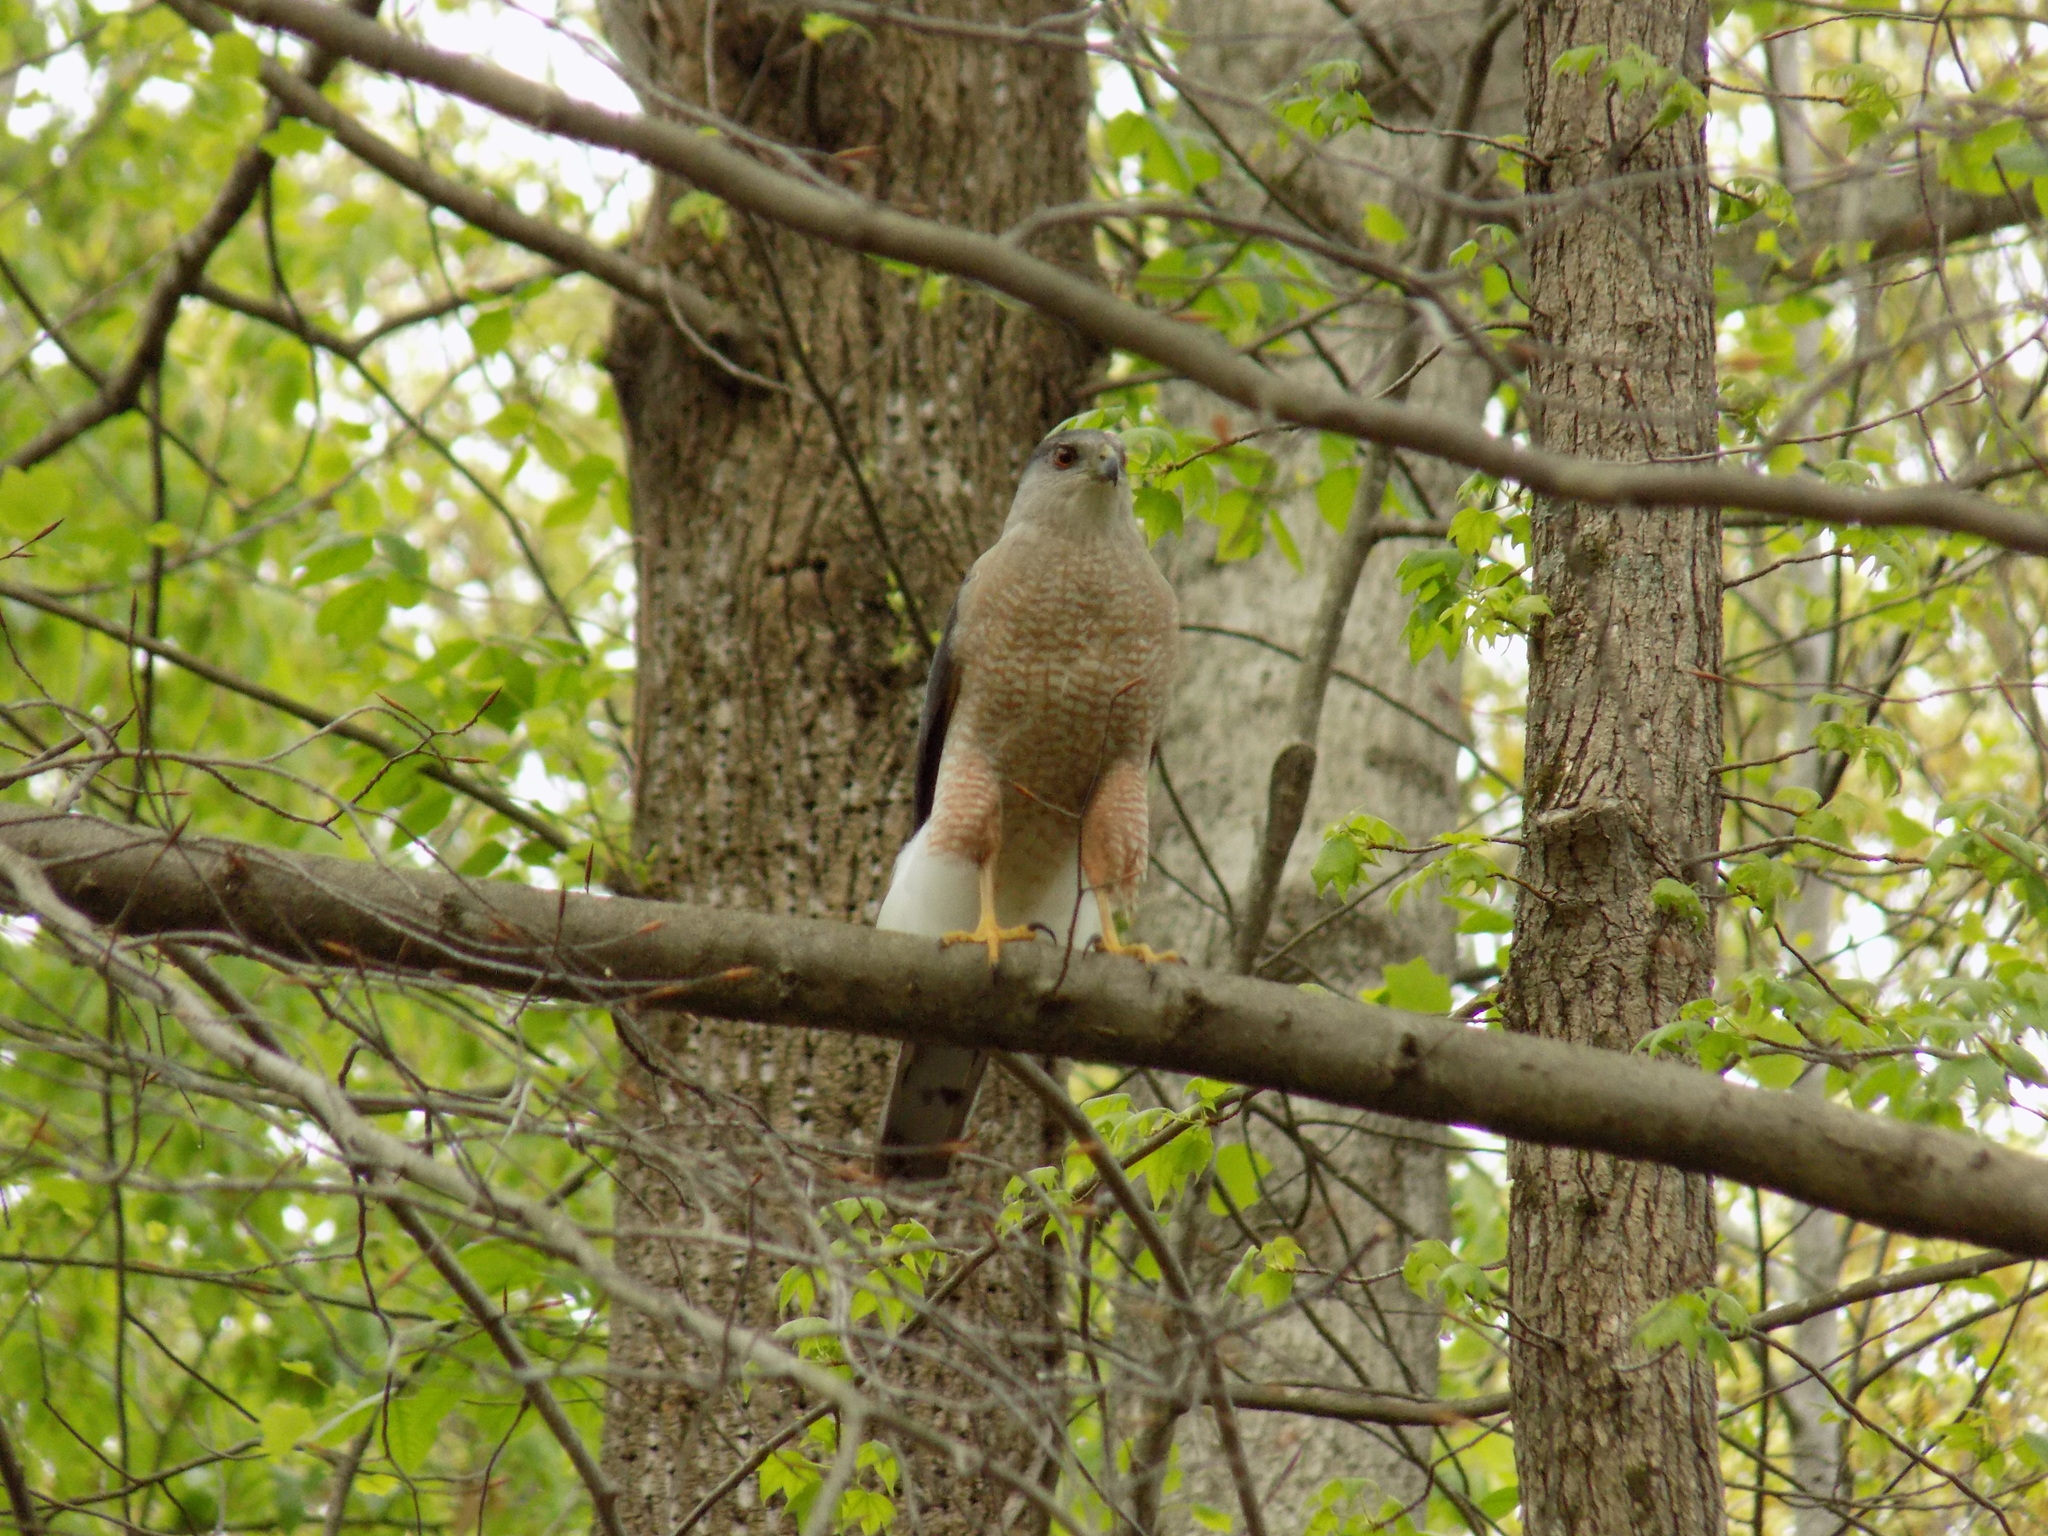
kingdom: Animalia
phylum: Chordata
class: Aves
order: Accipitriformes
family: Accipitridae
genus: Accipiter
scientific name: Accipiter cooperii
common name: Cooper's hawk
